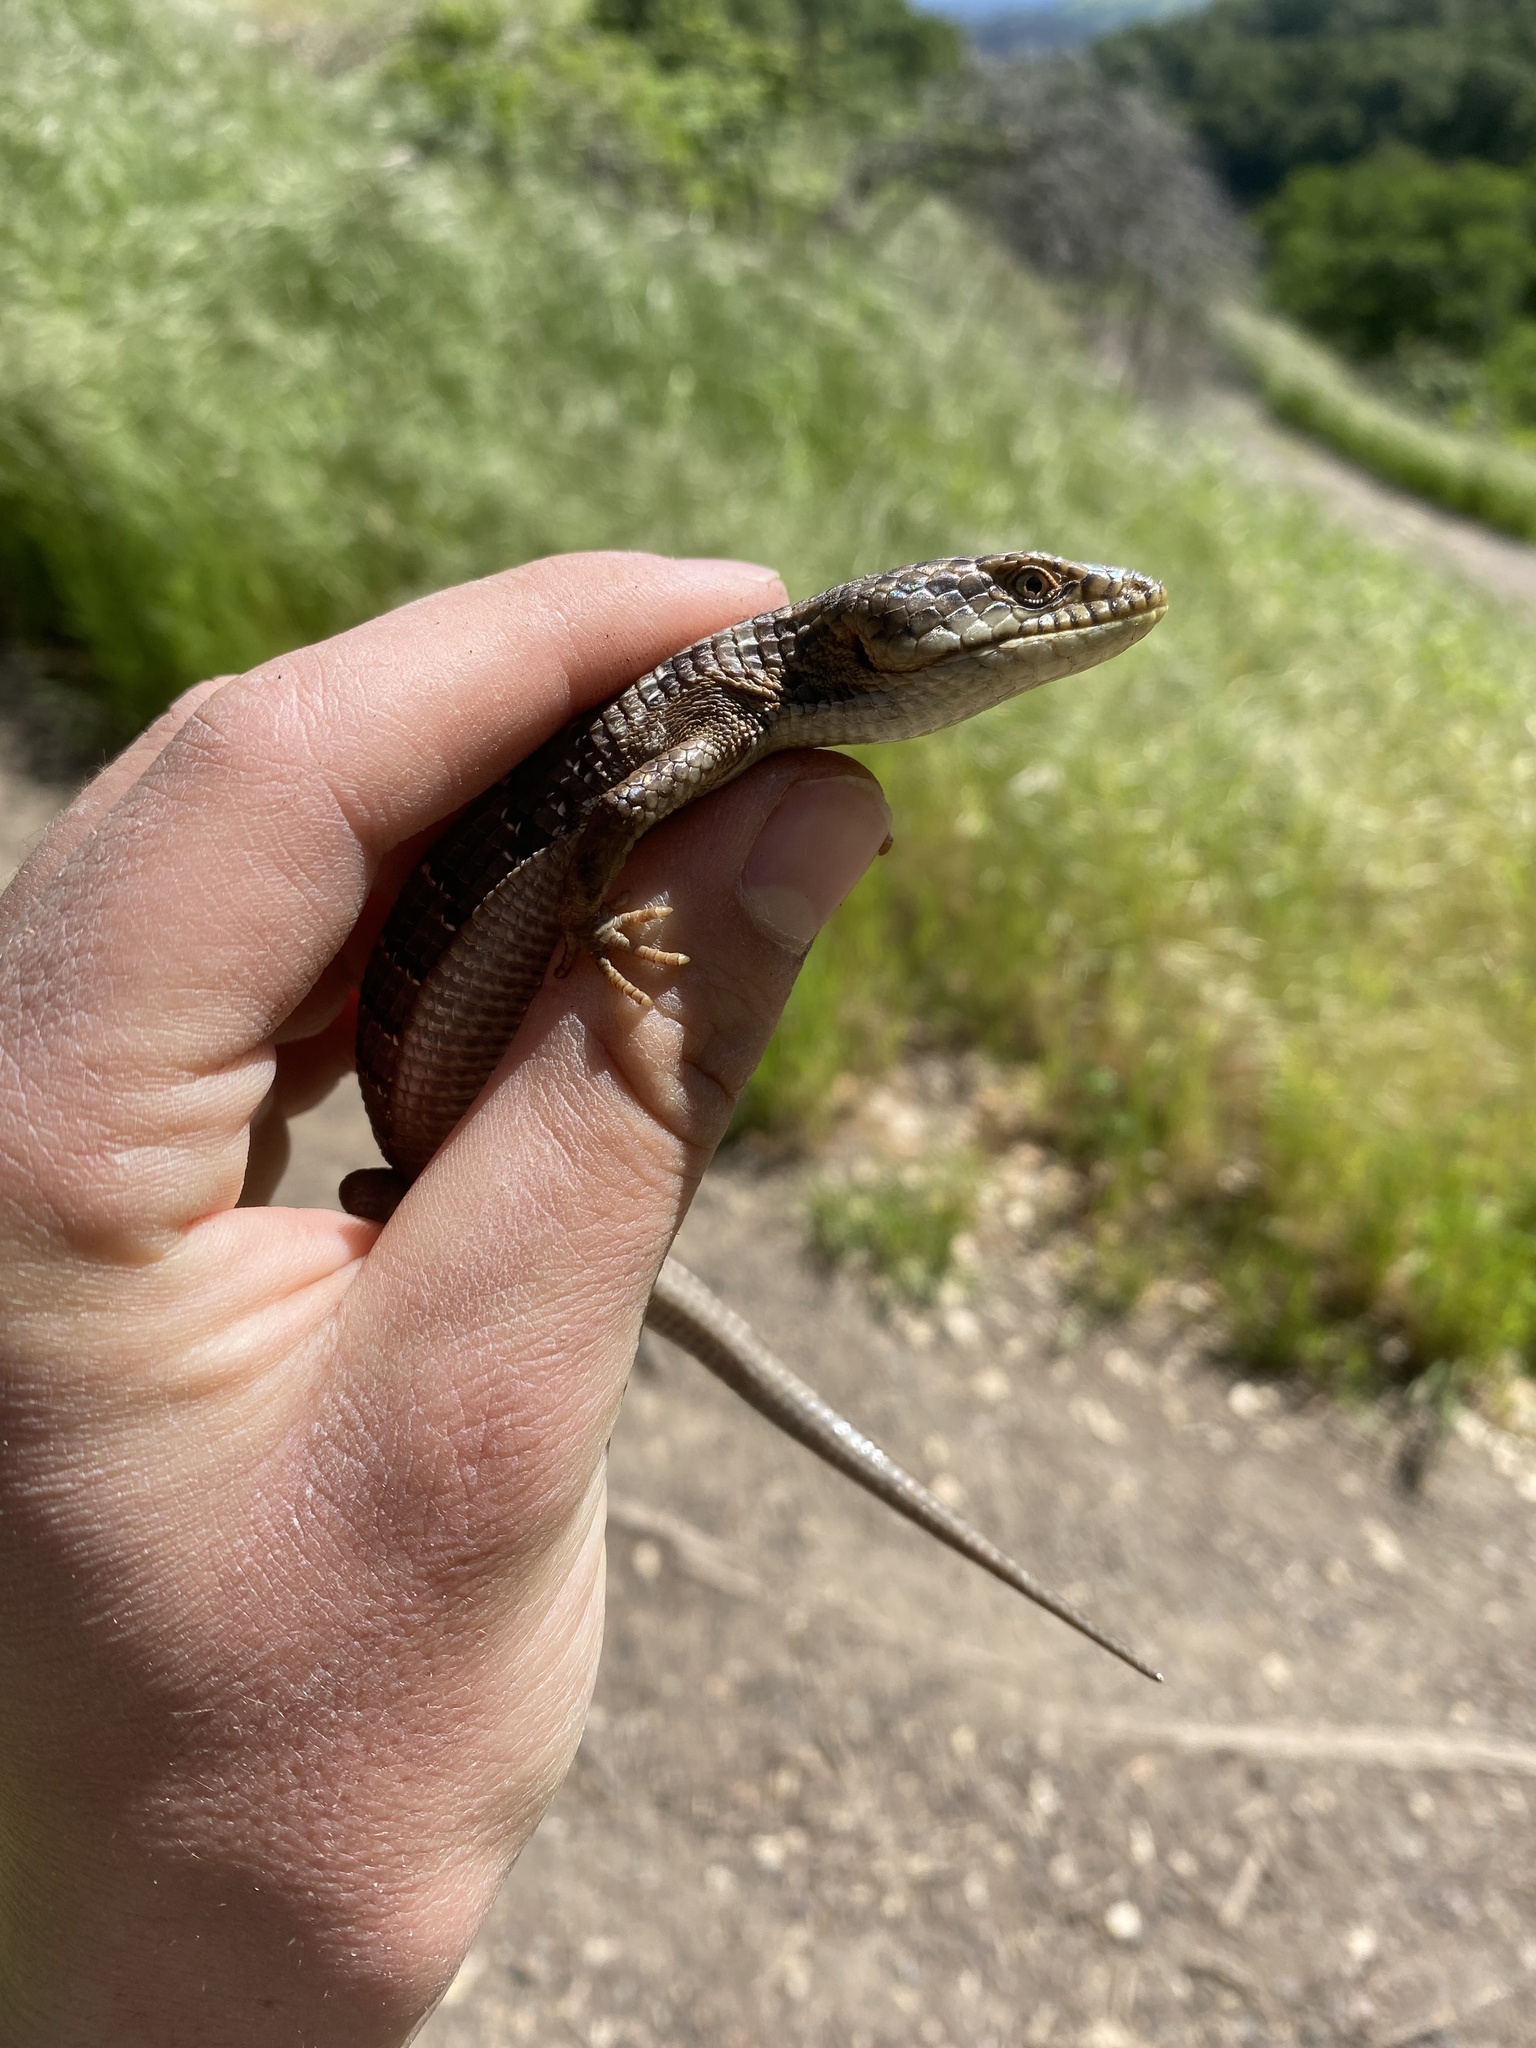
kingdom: Animalia
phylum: Chordata
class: Squamata
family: Anguidae
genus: Elgaria
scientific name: Elgaria multicarinata
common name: Southern alligator lizard
